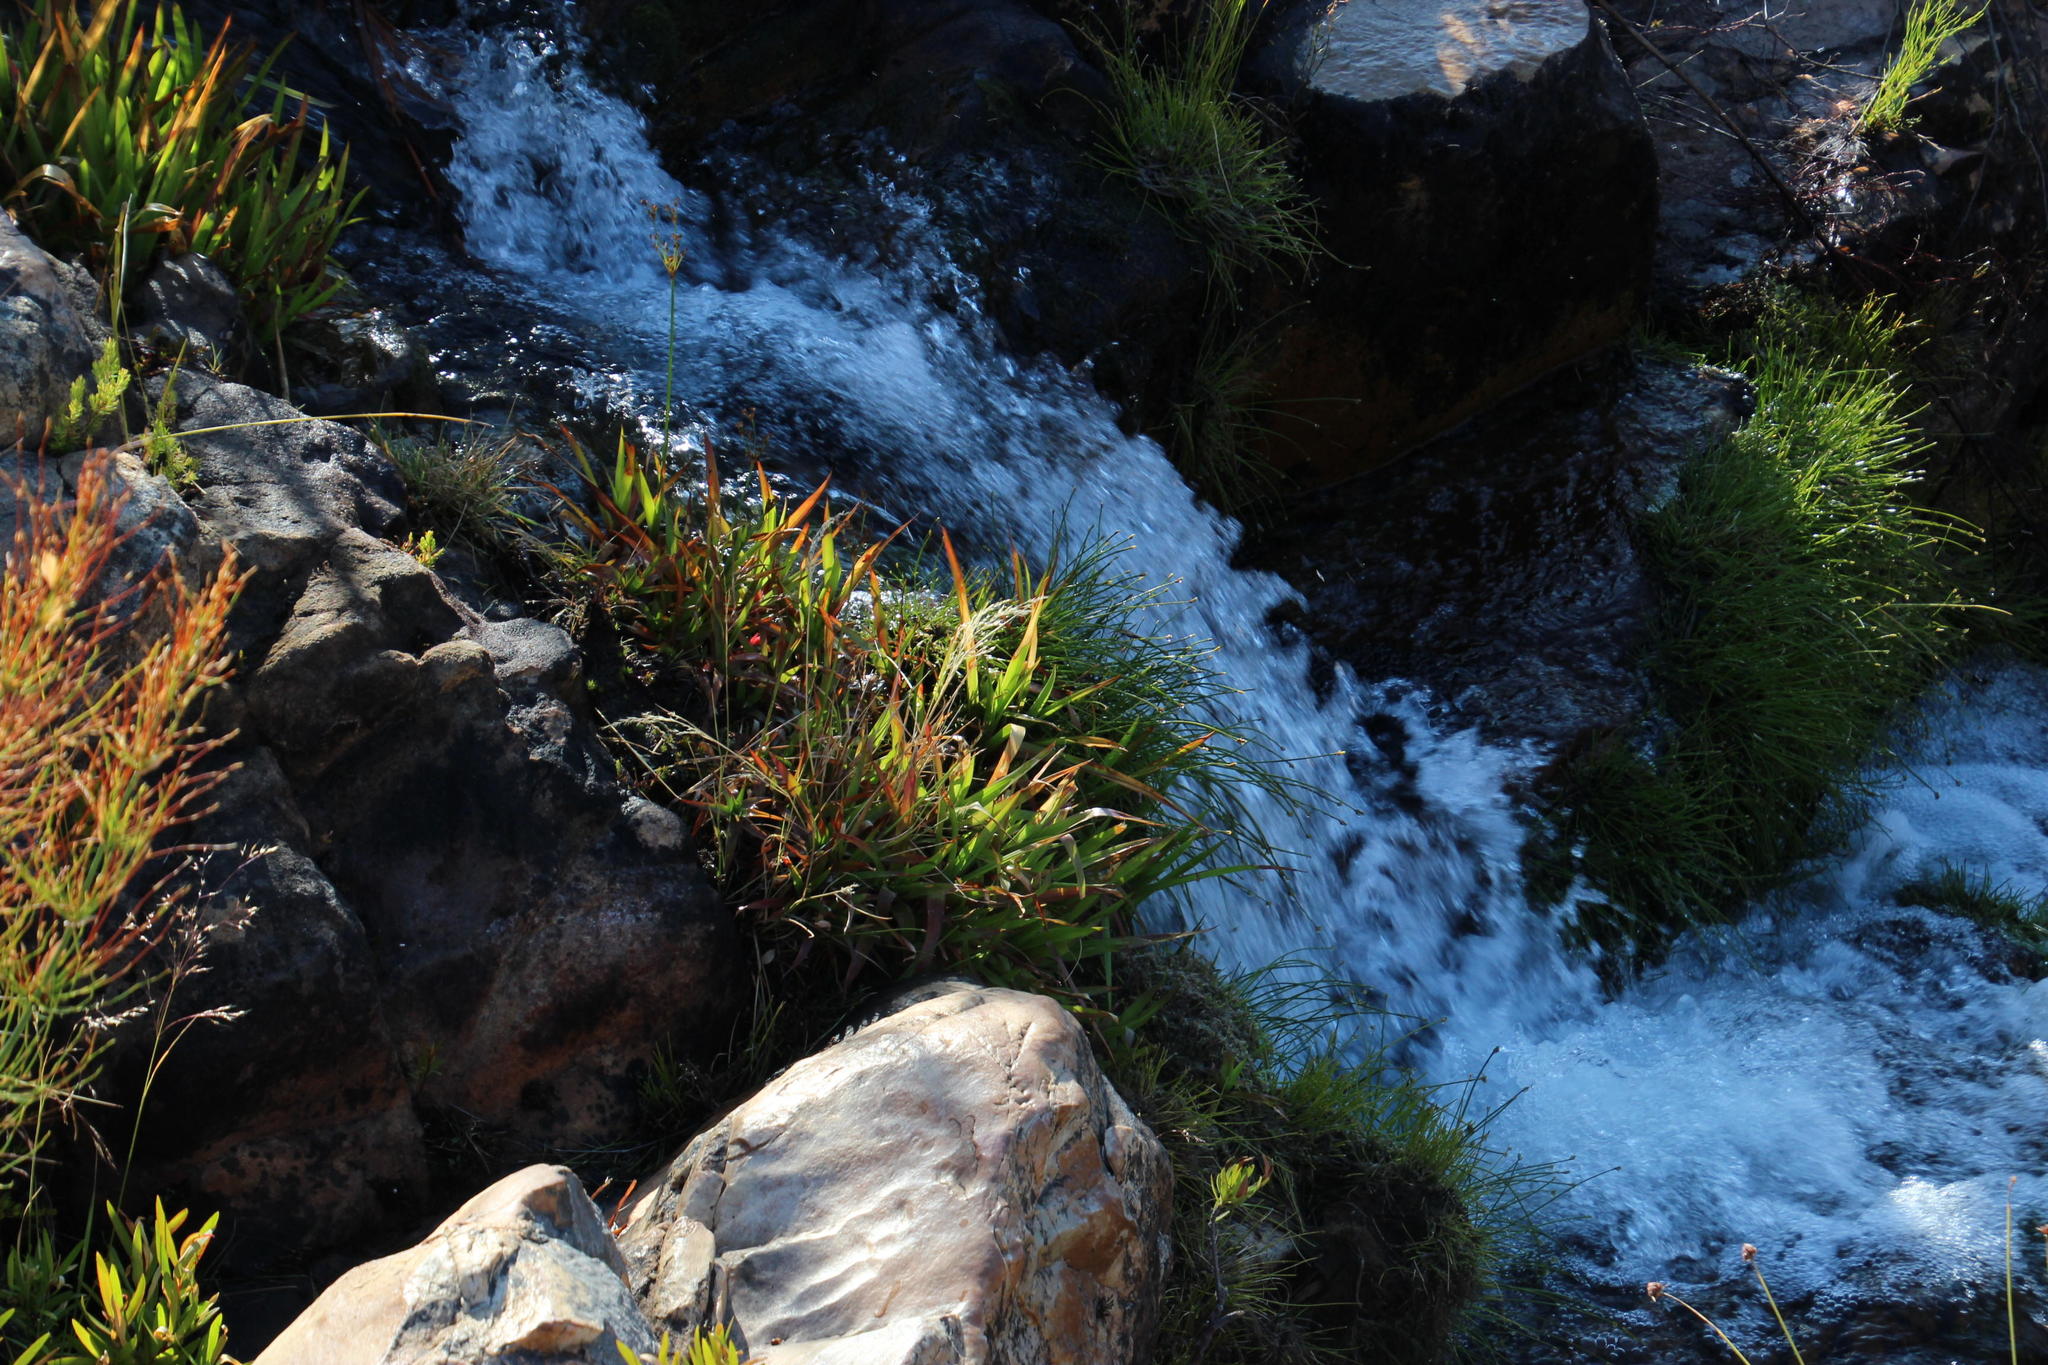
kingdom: Plantae
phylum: Tracheophyta
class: Liliopsida
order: Poales
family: Juncaceae
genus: Juncus
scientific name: Juncus lomatophyllus
